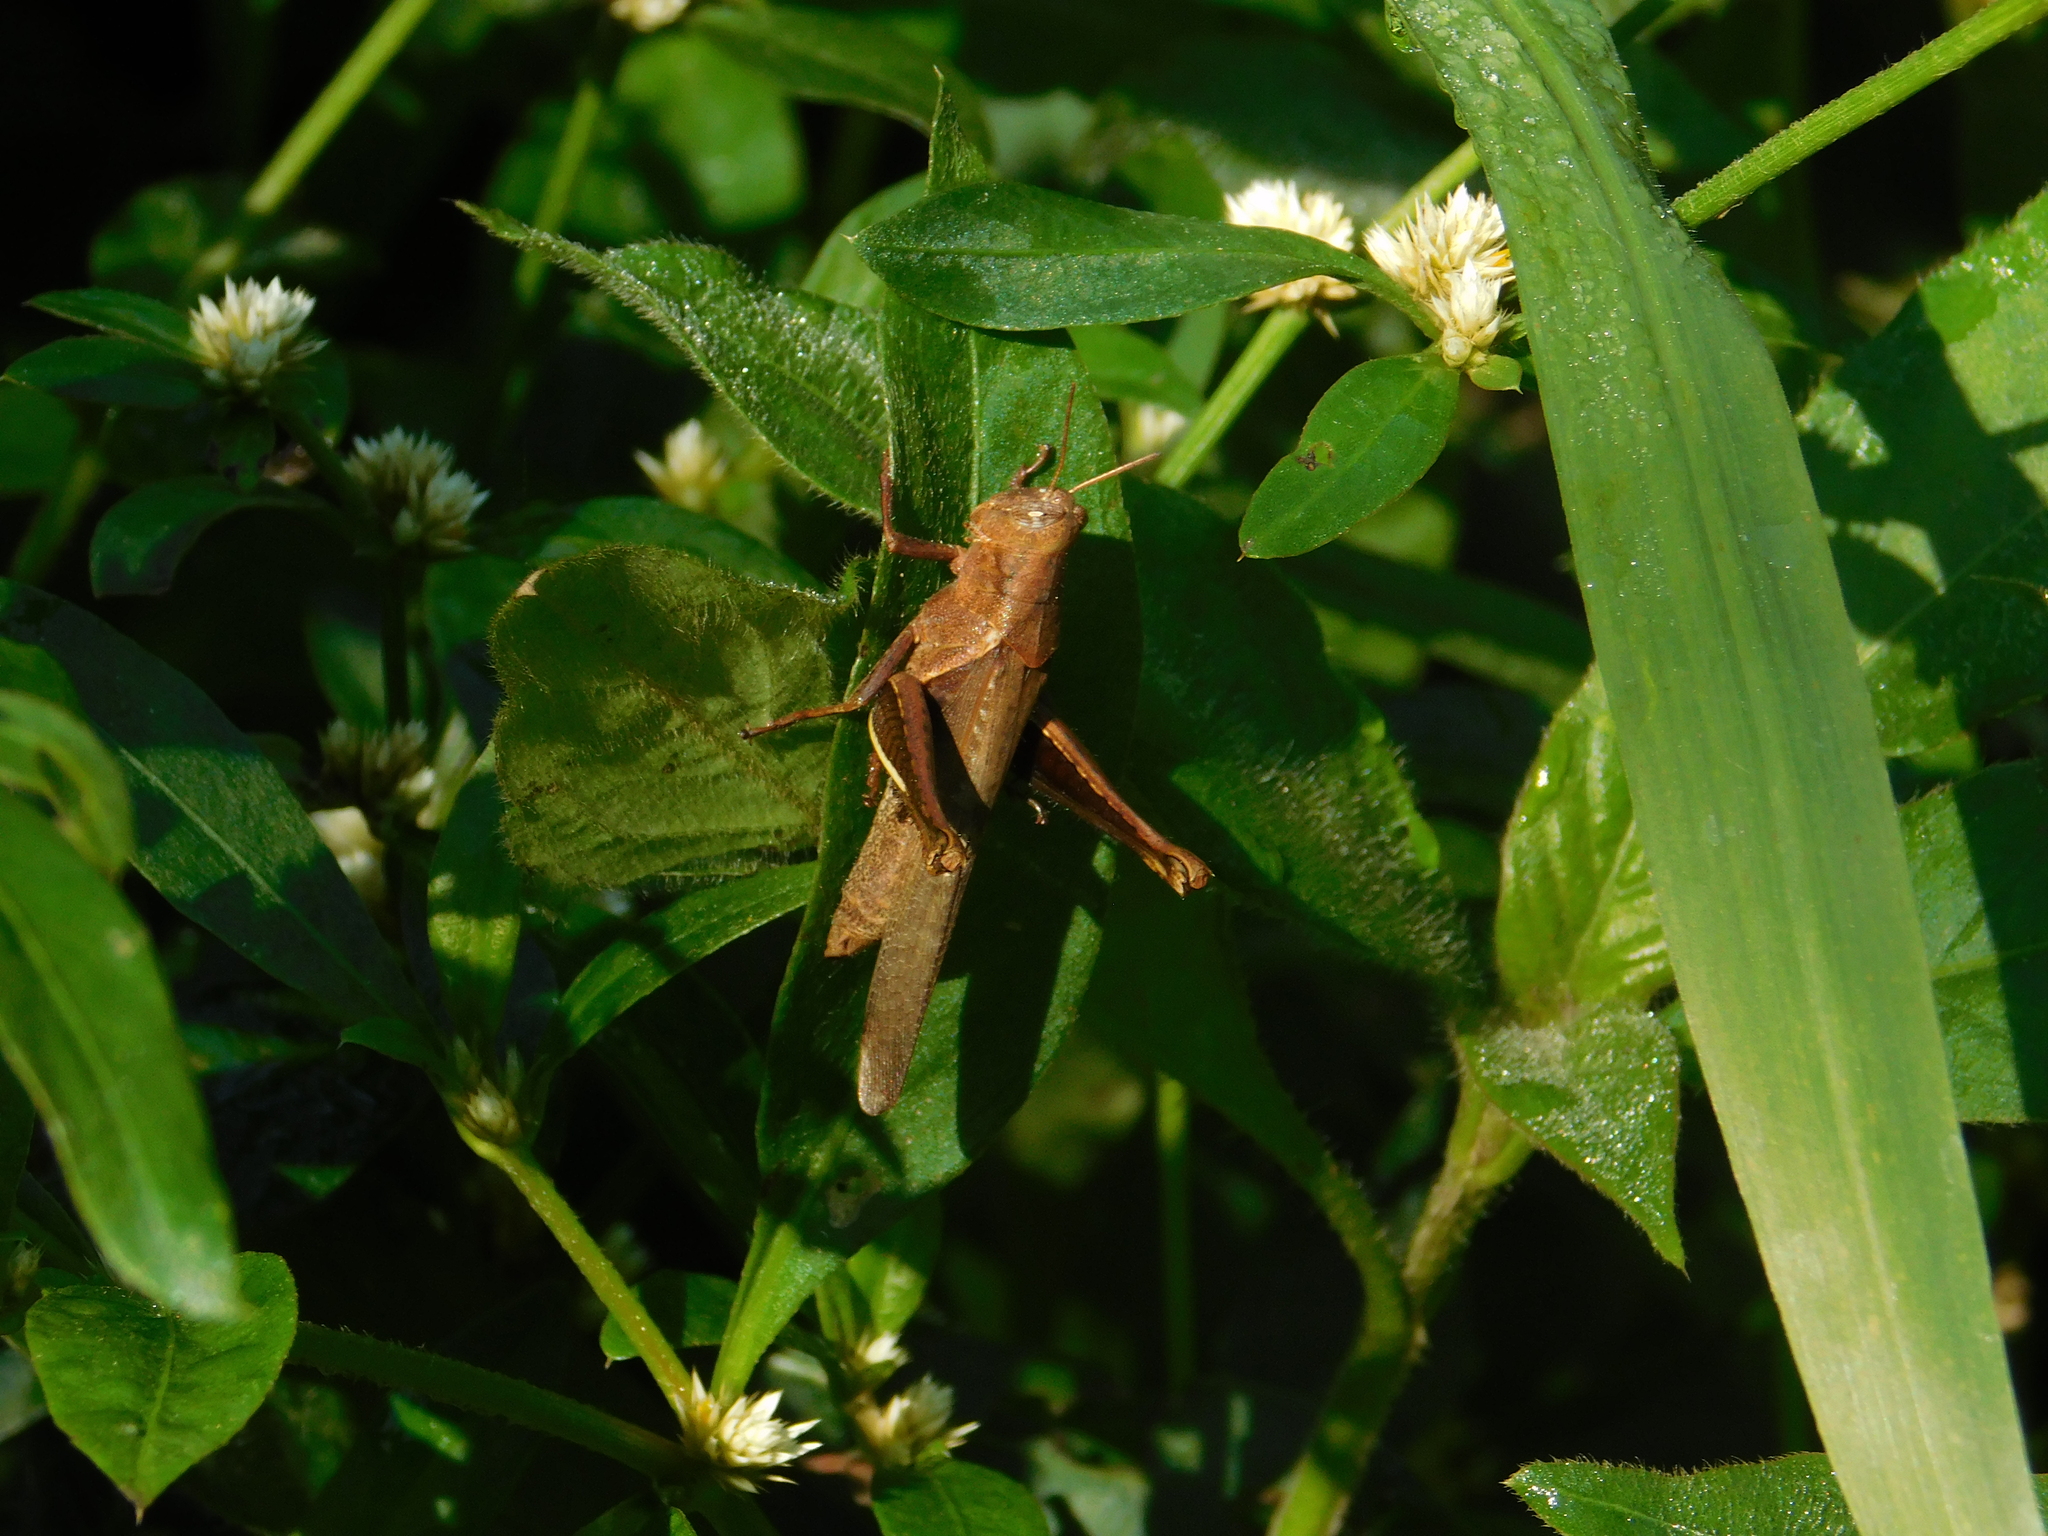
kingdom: Animalia
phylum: Arthropoda
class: Insecta
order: Orthoptera
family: Acrididae
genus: Abracris
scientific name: Abracris flavolineata
